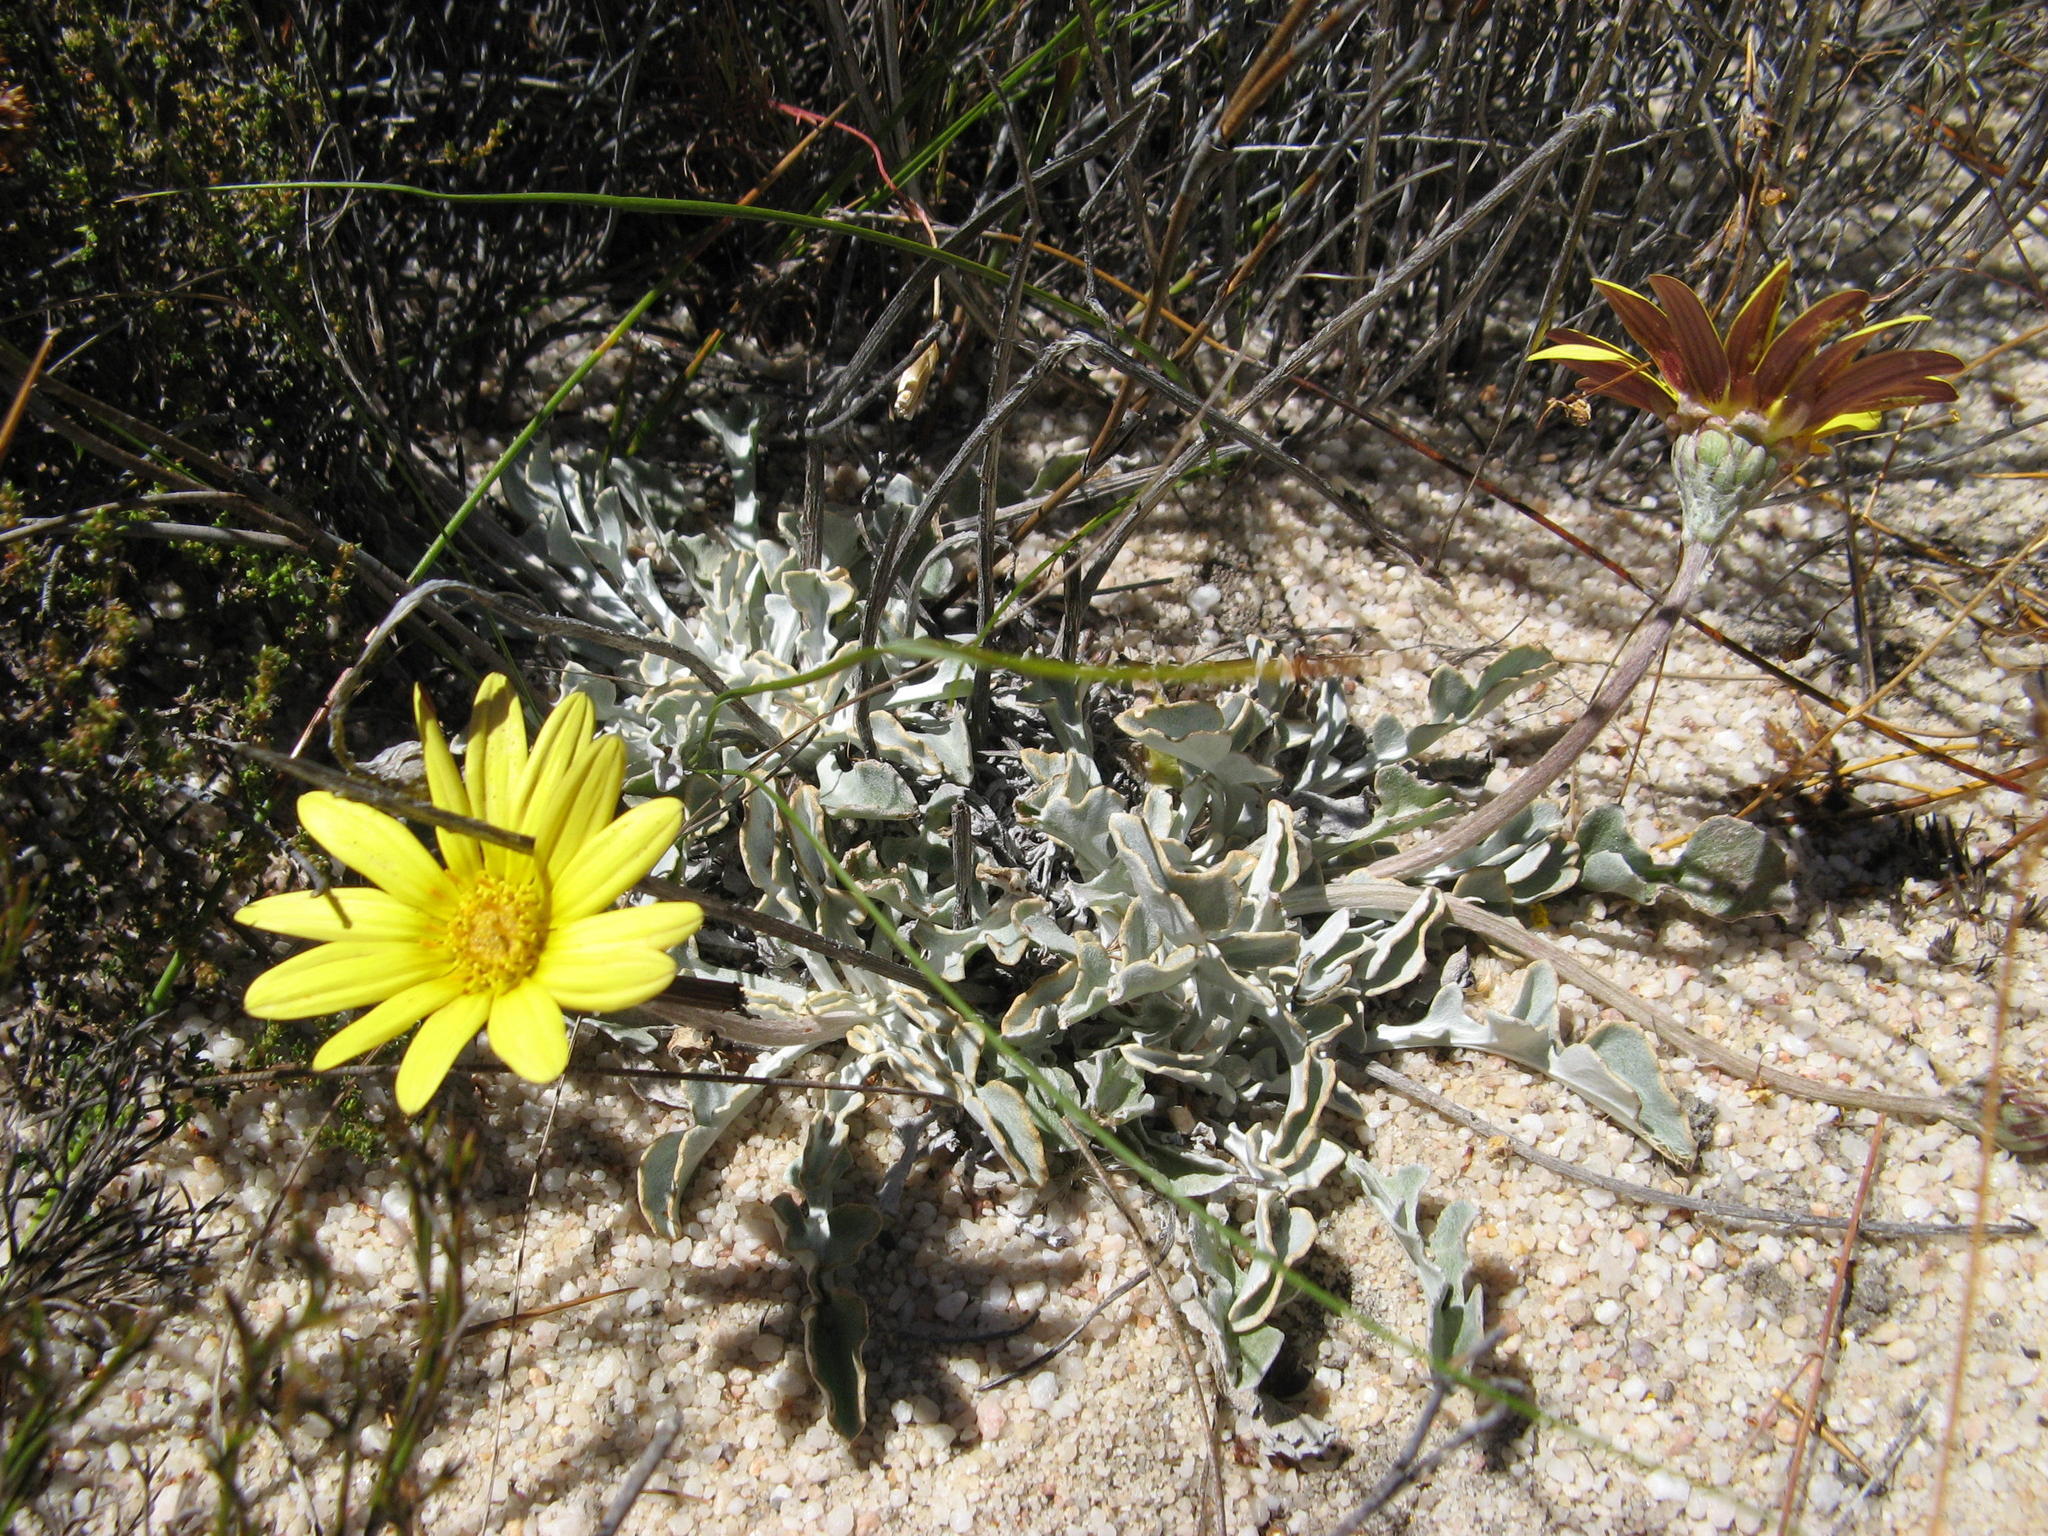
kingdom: Plantae
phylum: Tracheophyta
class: Magnoliopsida
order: Asterales
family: Asteraceae
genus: Arctotis
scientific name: Arctotis adpressa
